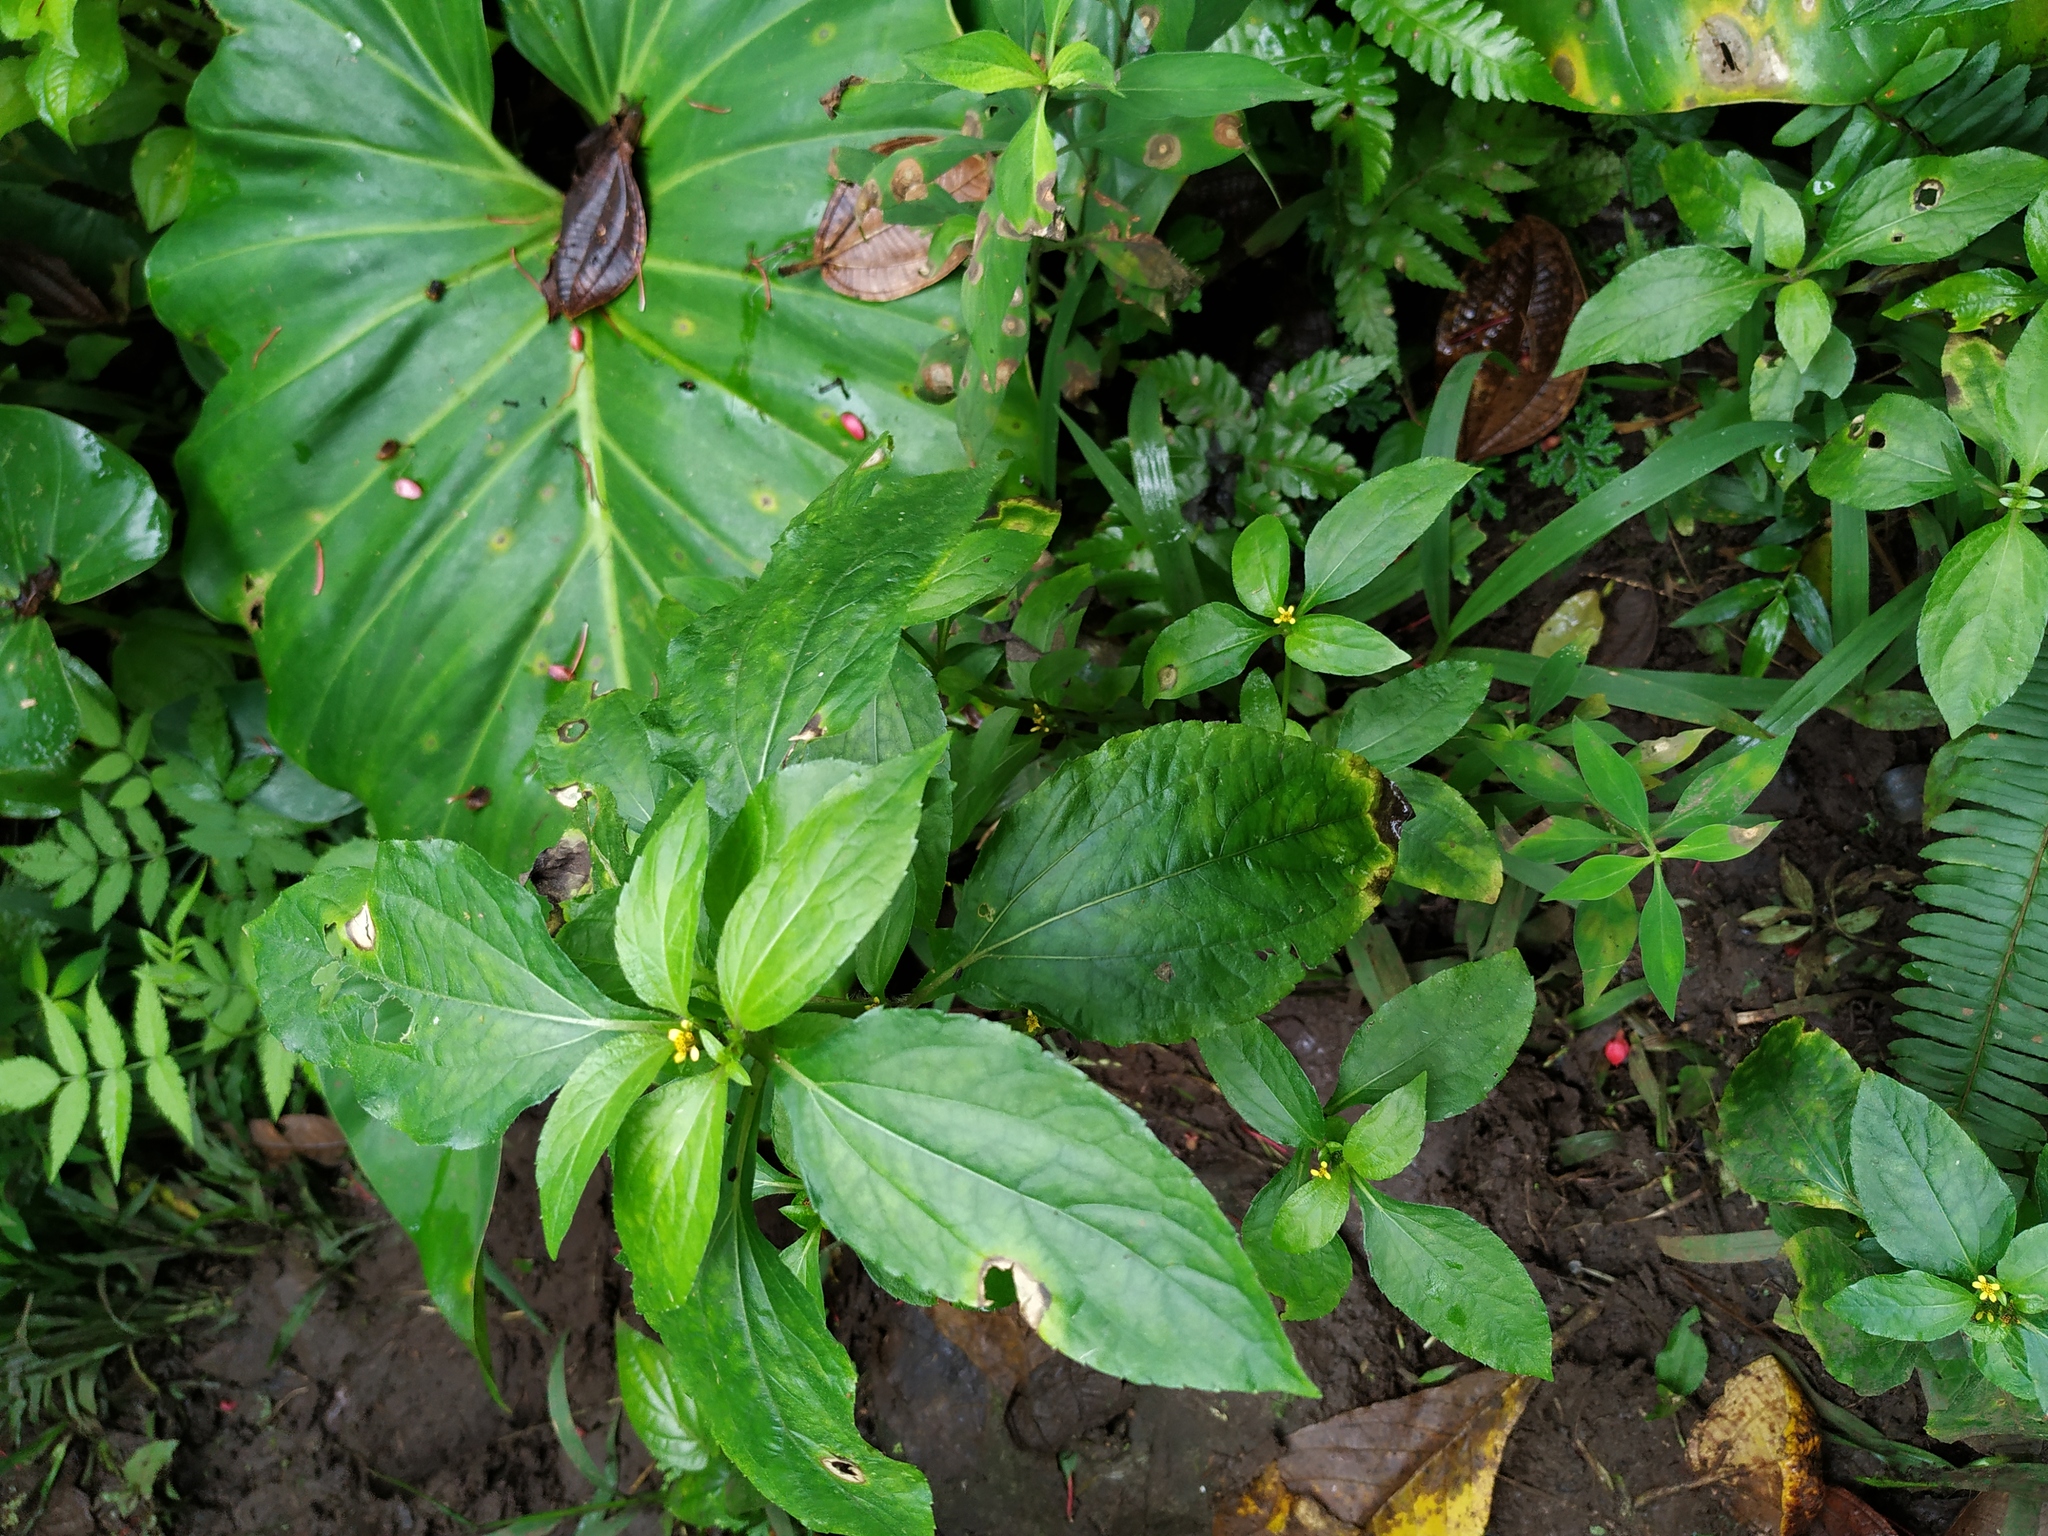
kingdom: Plantae
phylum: Tracheophyta
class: Magnoliopsida
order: Asterales
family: Asteraceae
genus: Synedrella
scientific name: Synedrella nodiflora
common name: Nodeweed
